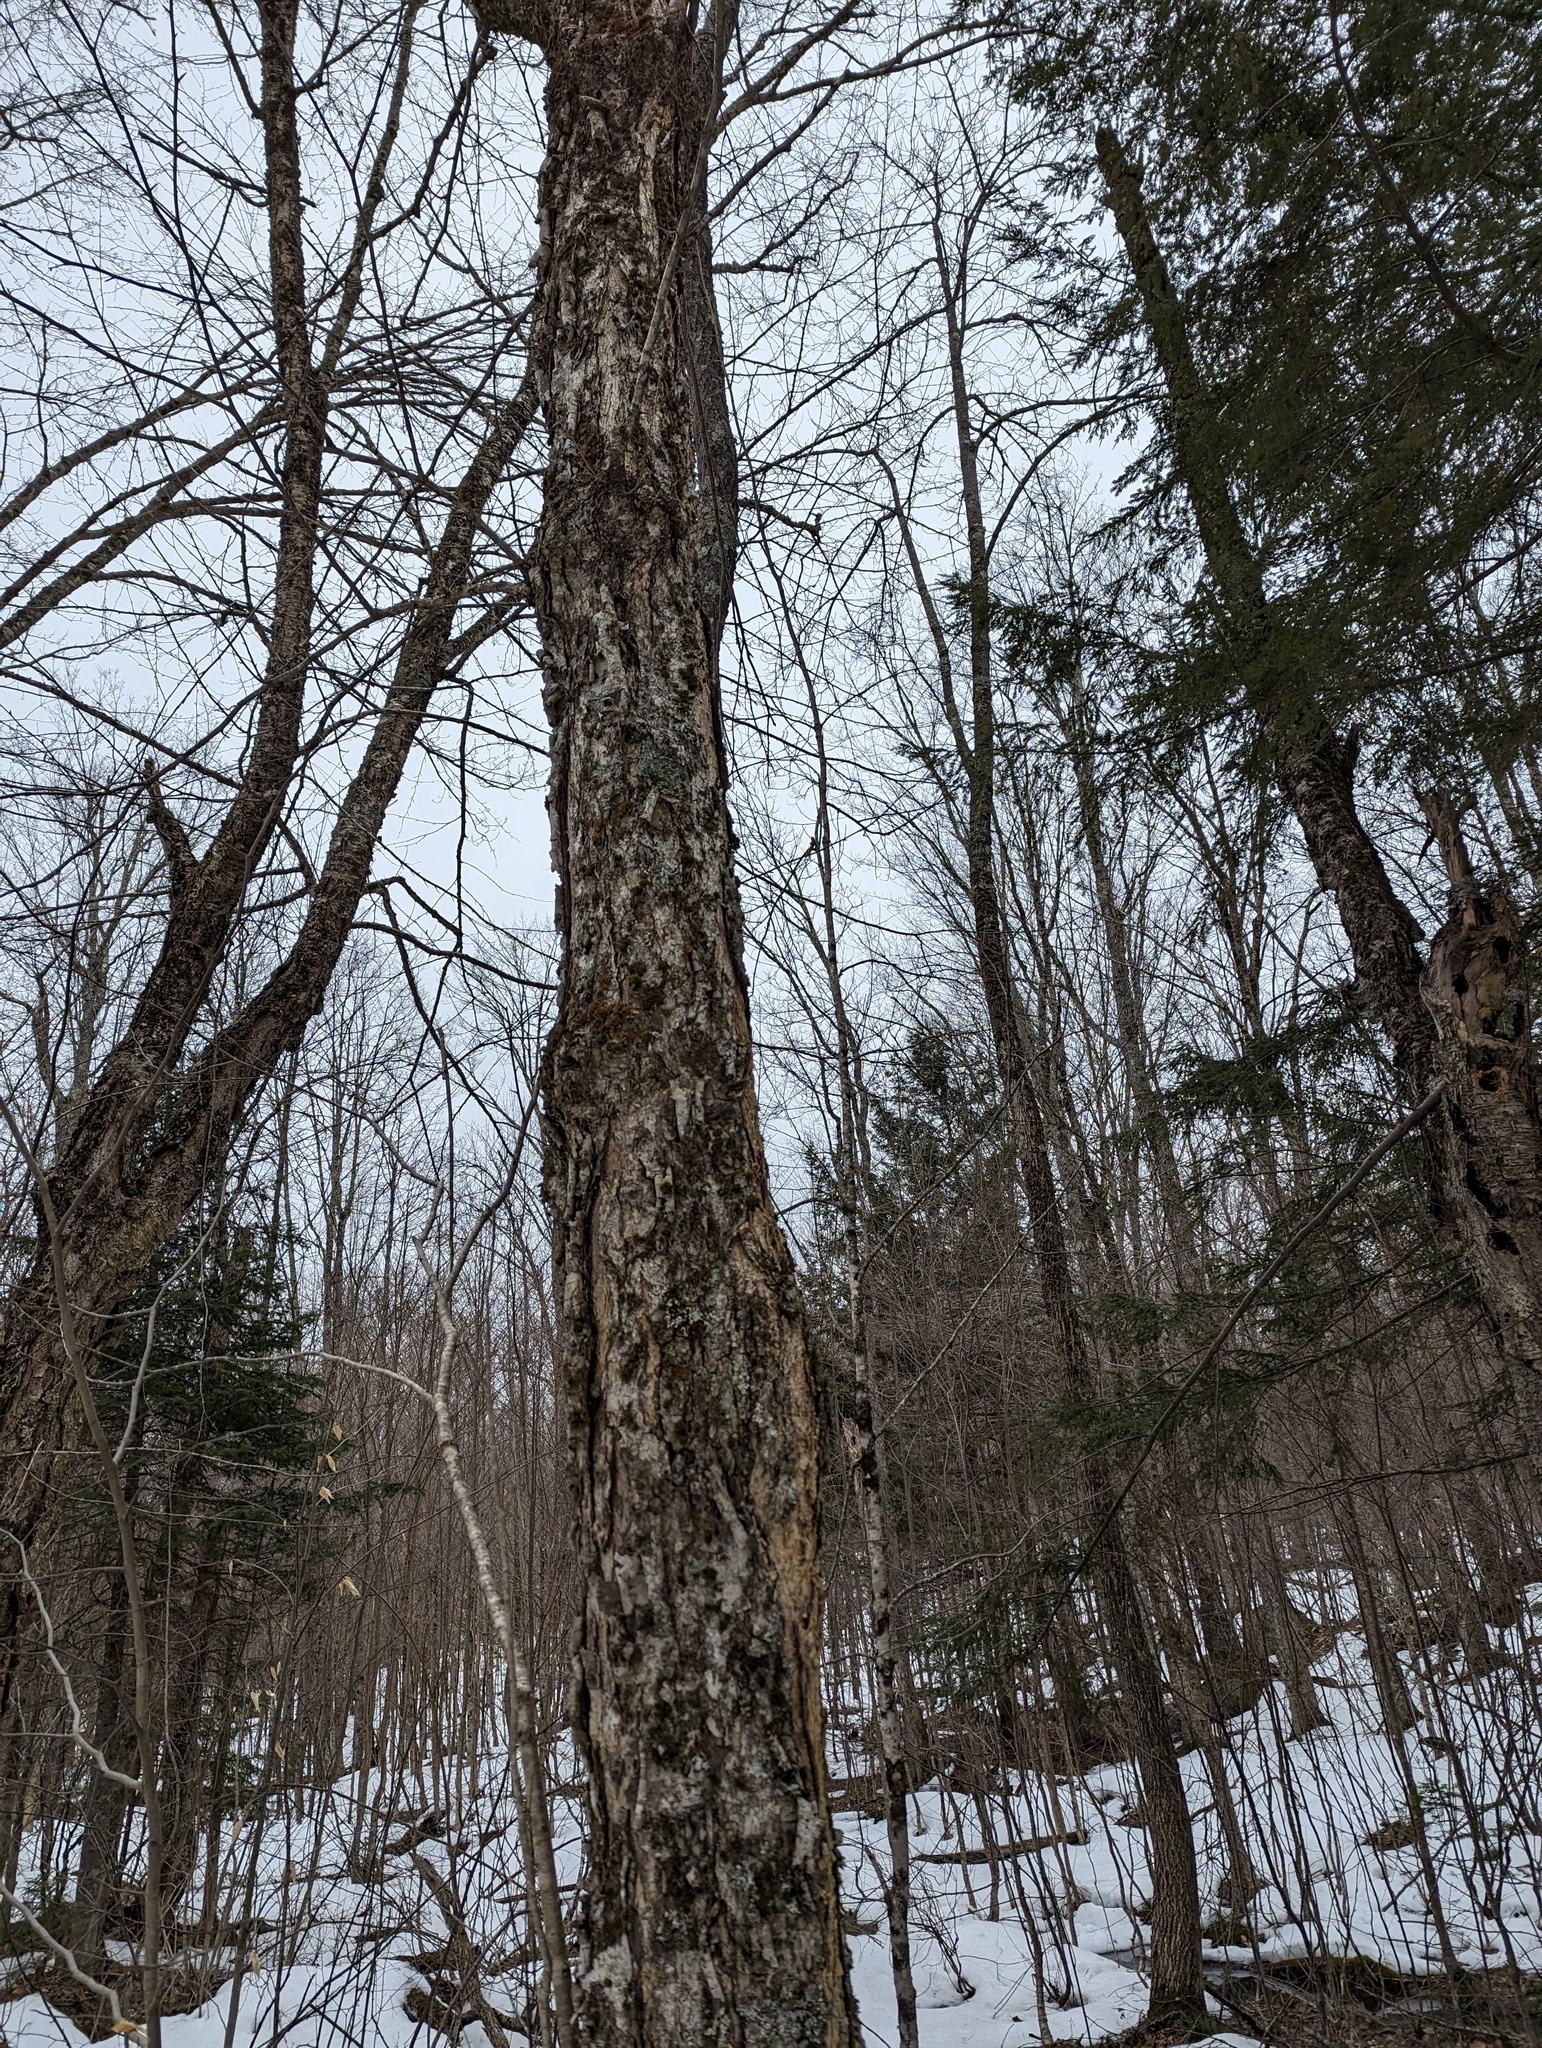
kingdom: Plantae
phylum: Tracheophyta
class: Magnoliopsida
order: Fagales
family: Betulaceae
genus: Betula
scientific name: Betula alleghaniensis
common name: Yellow birch
